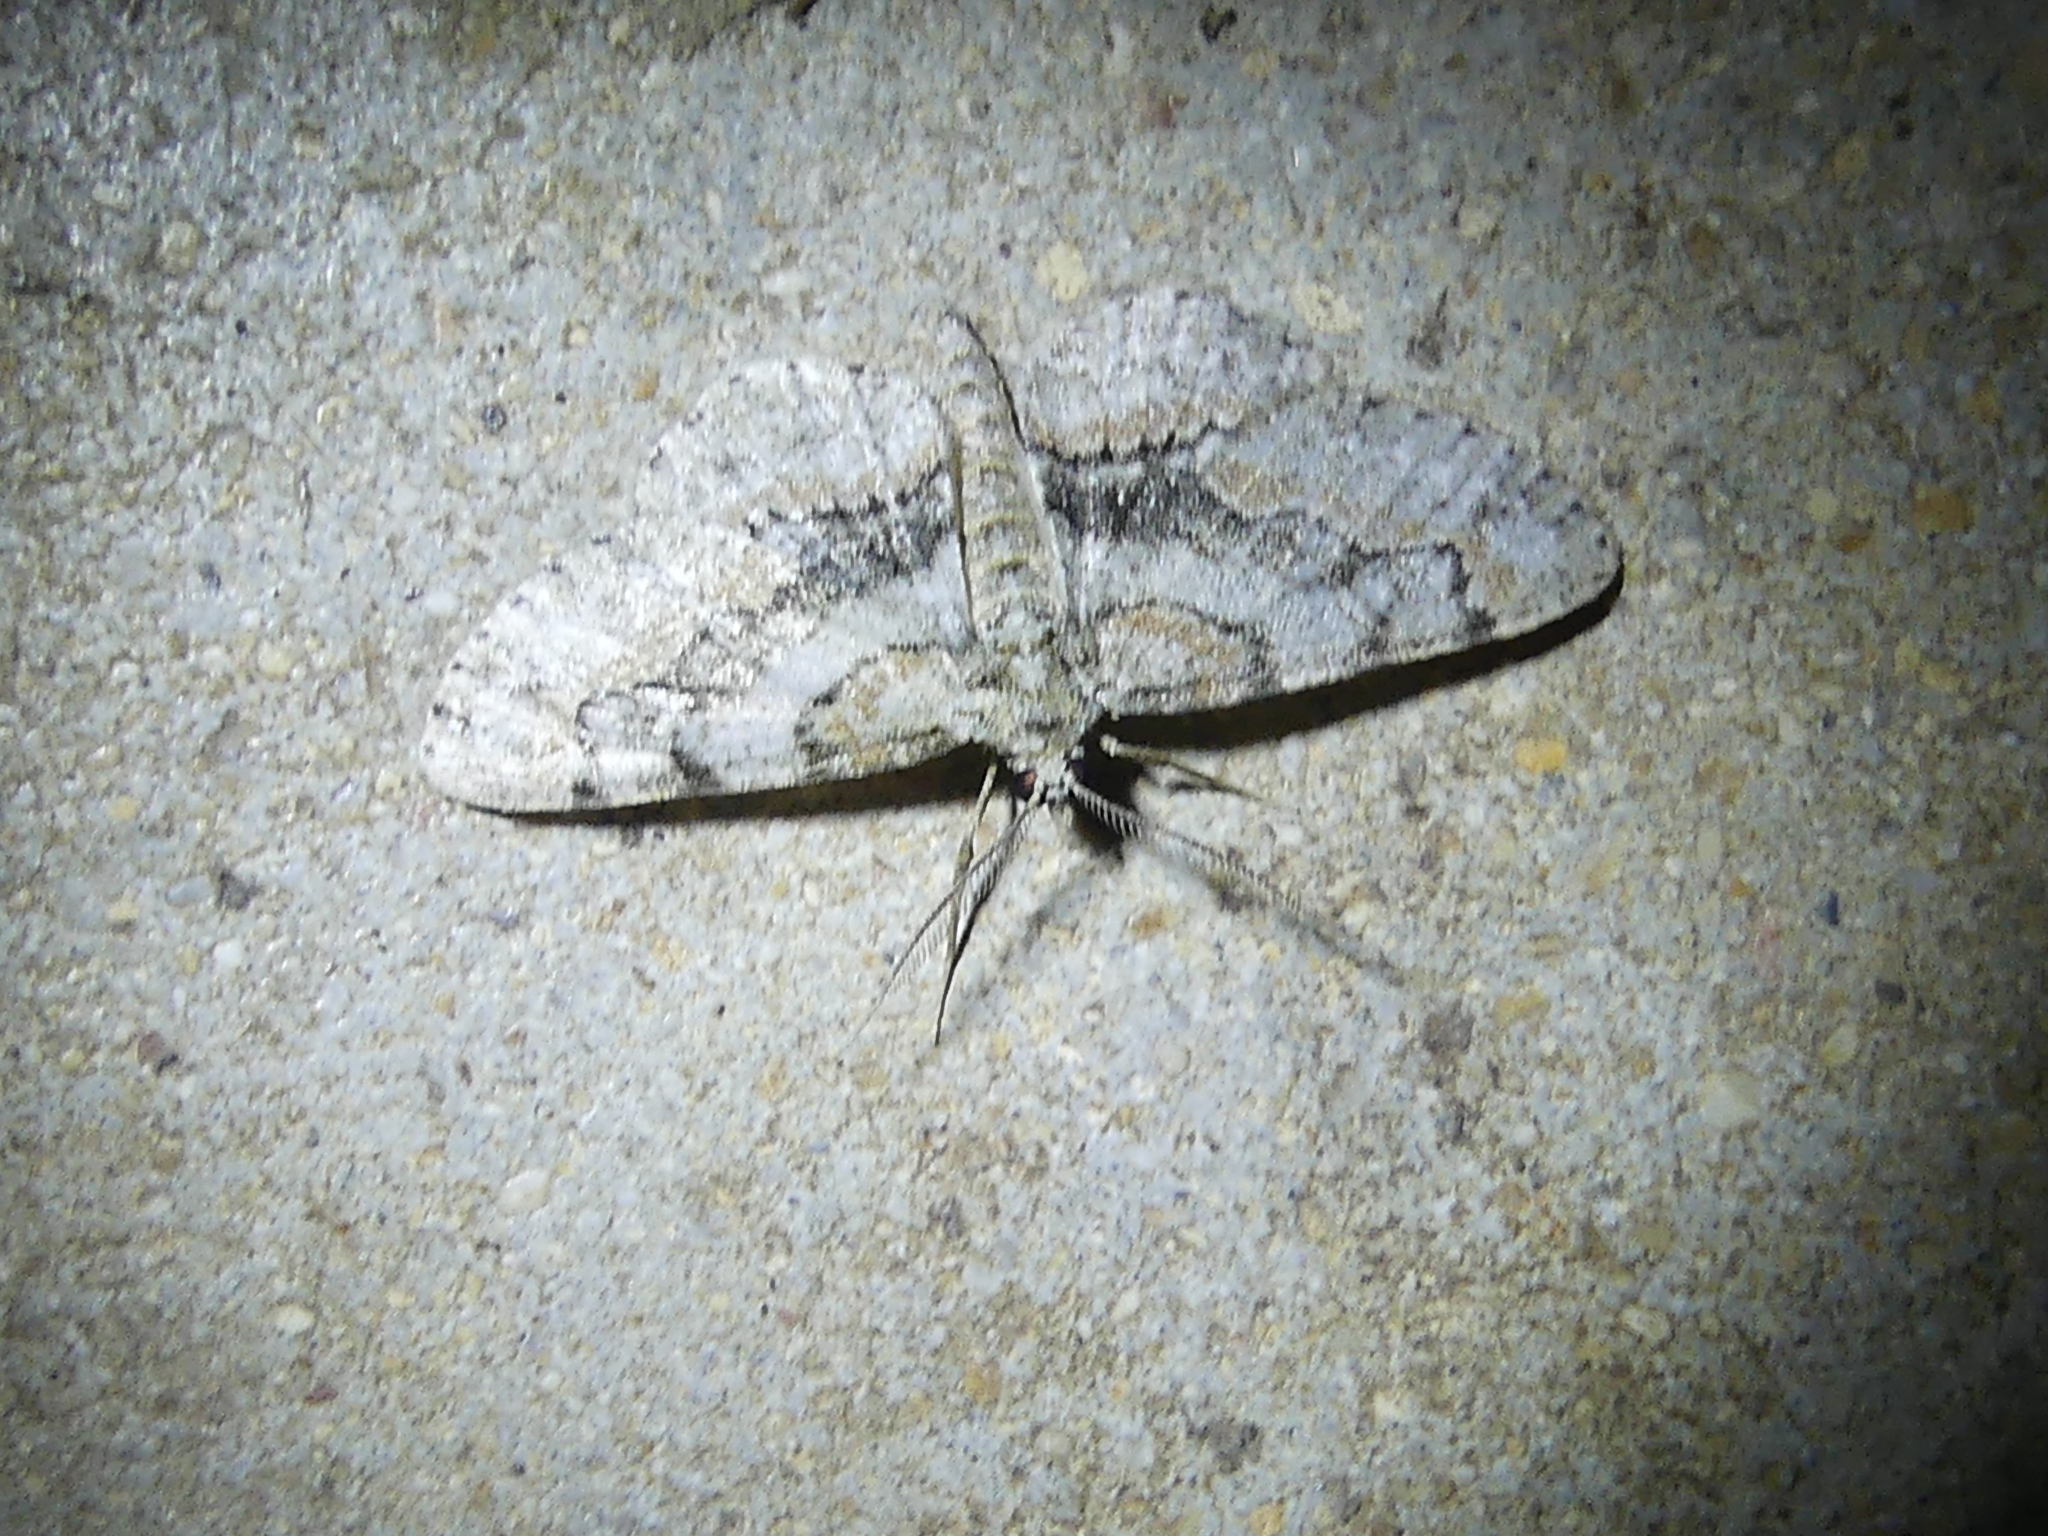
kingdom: Animalia
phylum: Arthropoda
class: Insecta
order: Lepidoptera
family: Geometridae
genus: Iridopsis
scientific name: Iridopsis ephyraria
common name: Pale-winged gray
